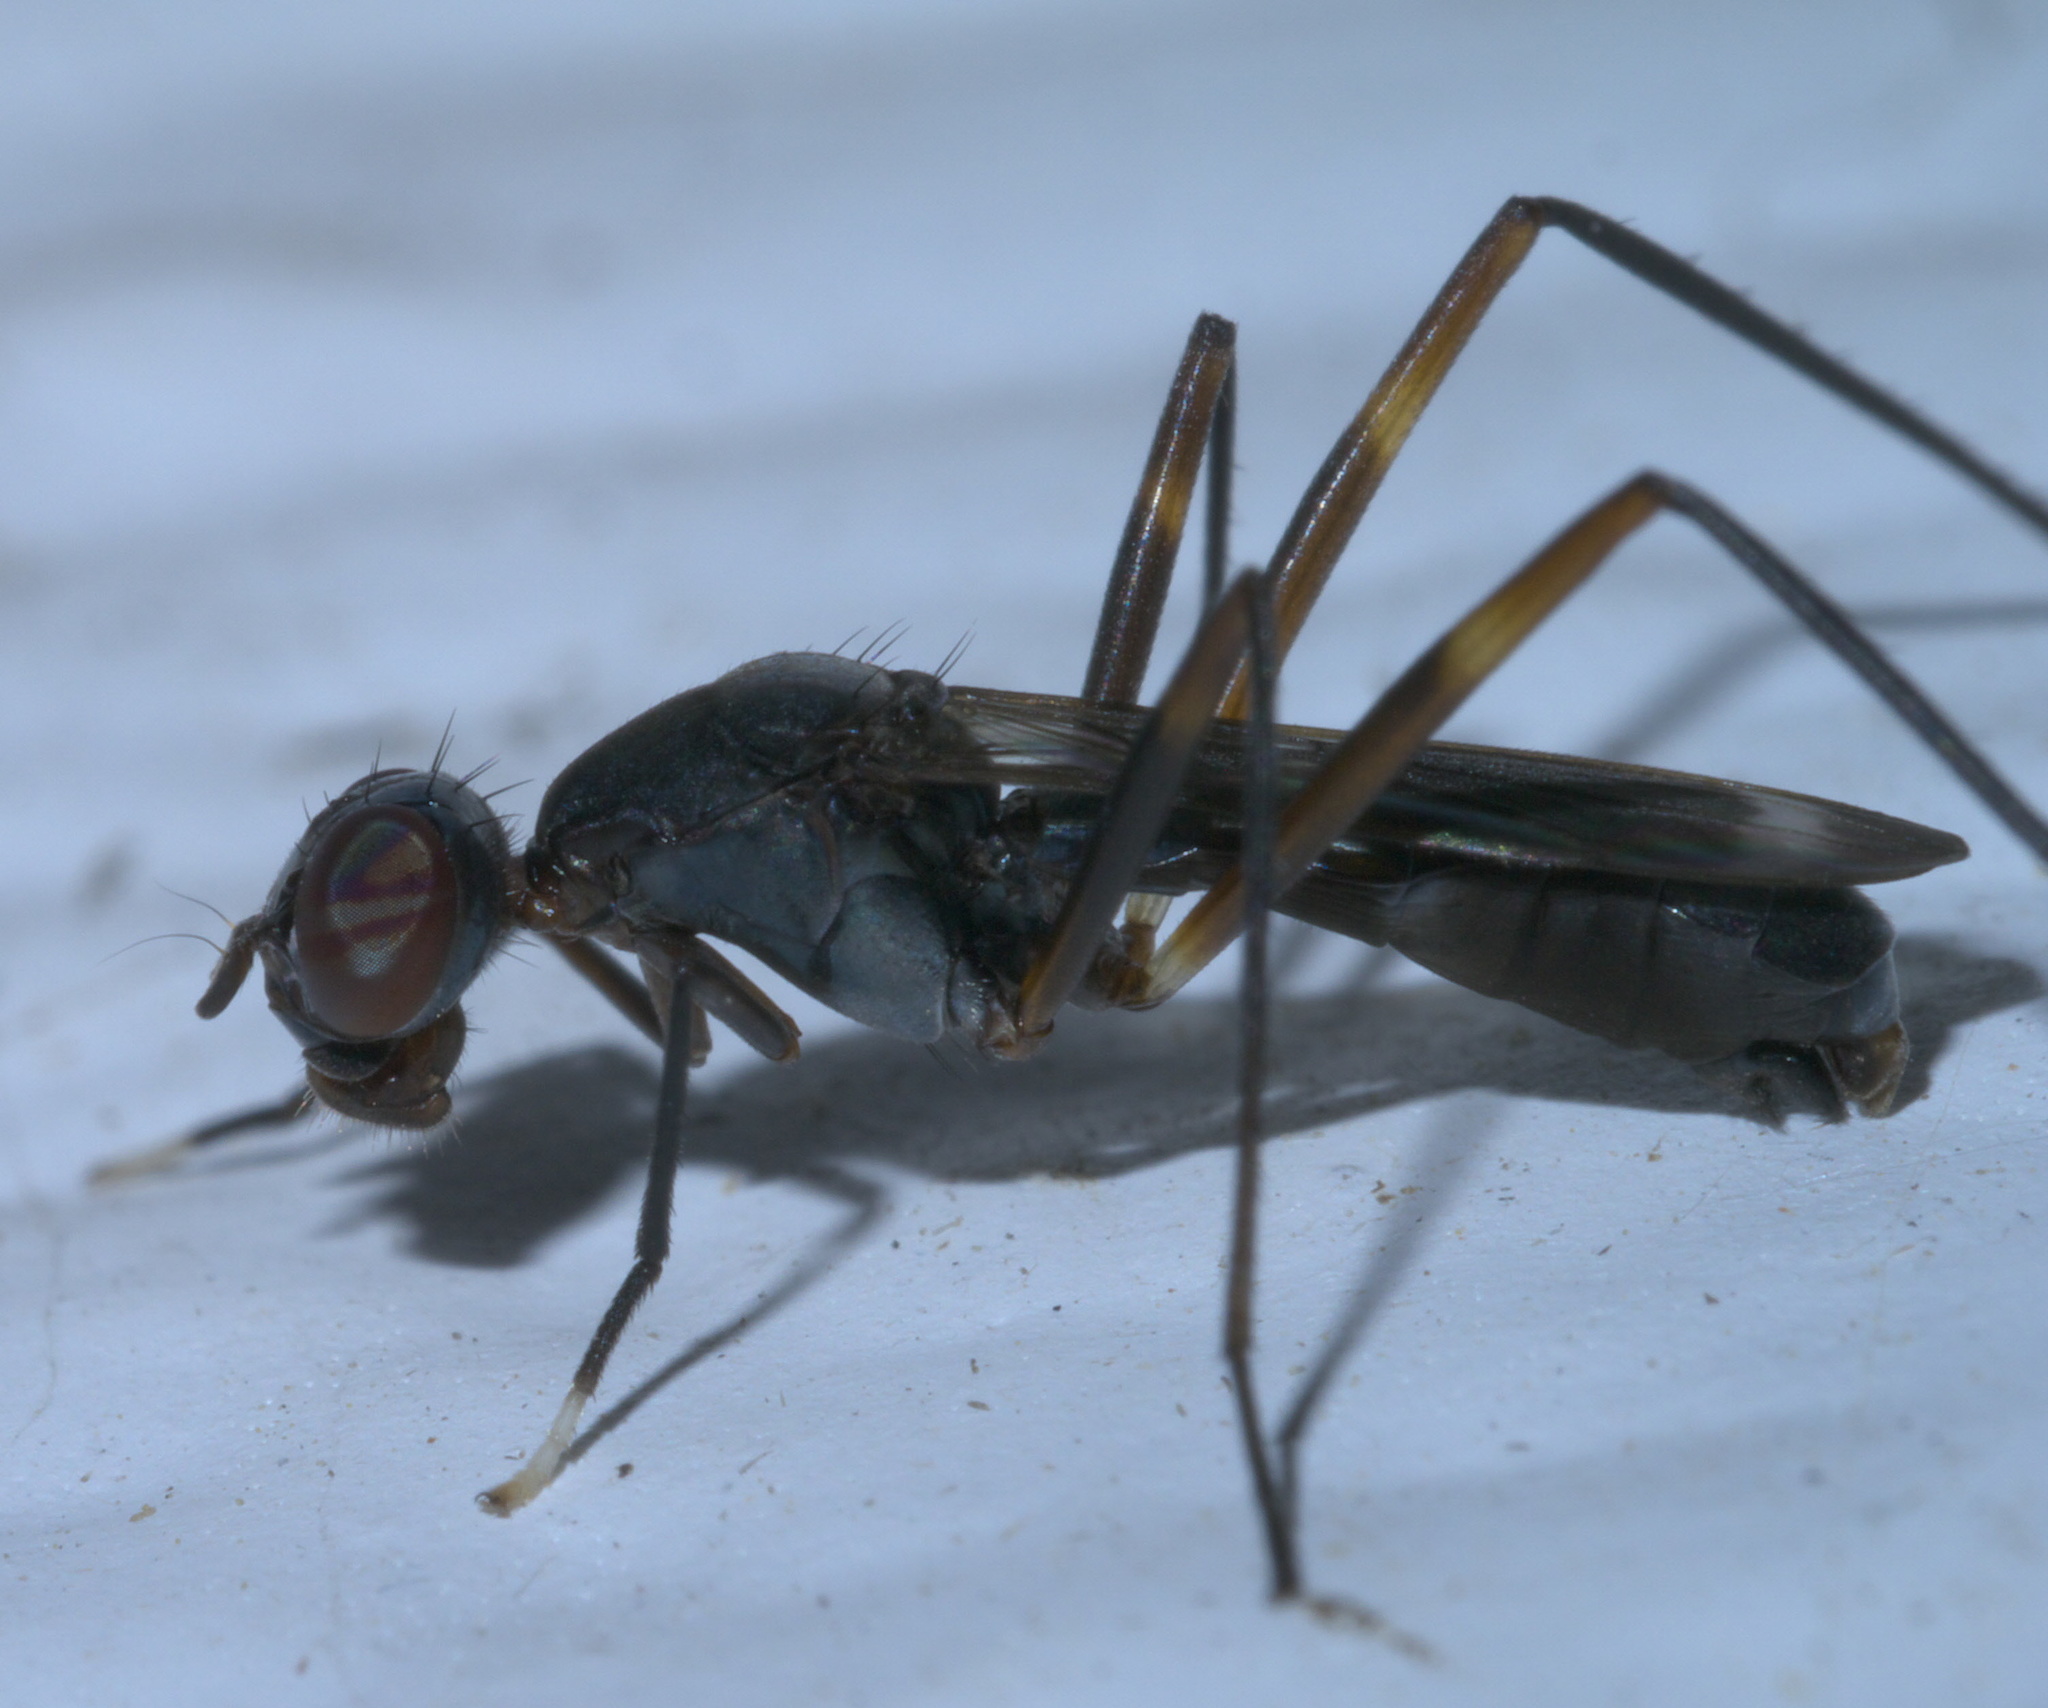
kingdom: Animalia
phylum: Arthropoda
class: Insecta
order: Diptera
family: Micropezidae
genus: Taeniaptera
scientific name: Taeniaptera trivittata
